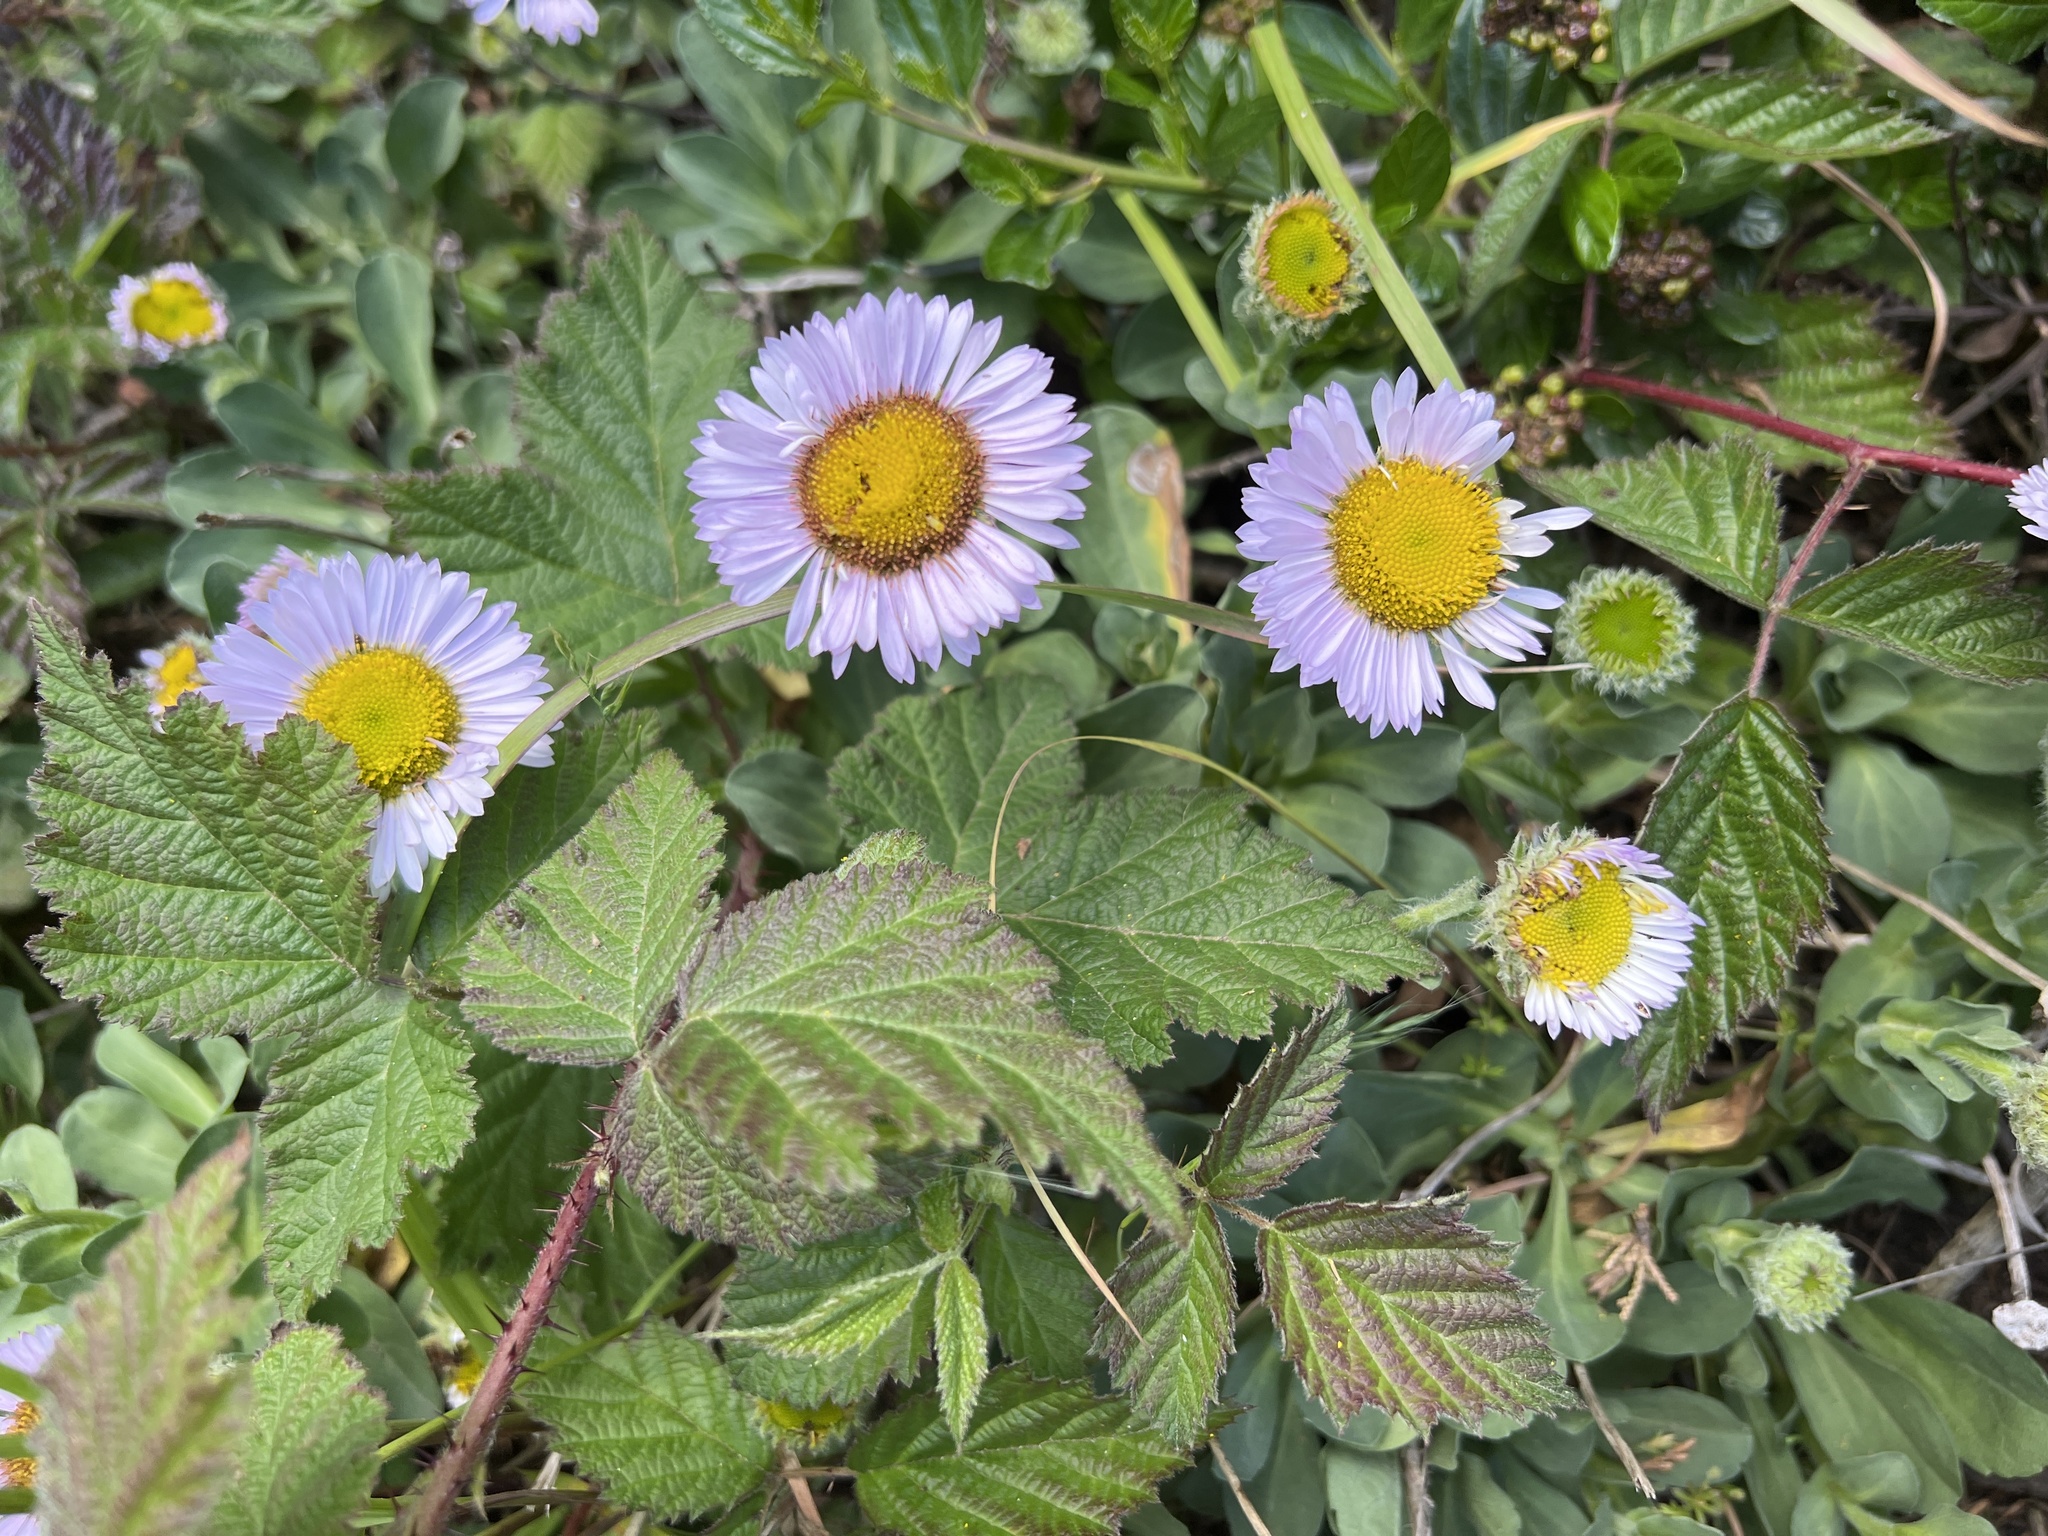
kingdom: Plantae
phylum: Tracheophyta
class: Magnoliopsida
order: Asterales
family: Asteraceae
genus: Erigeron
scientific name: Erigeron glaucus
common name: Seaside daisy
